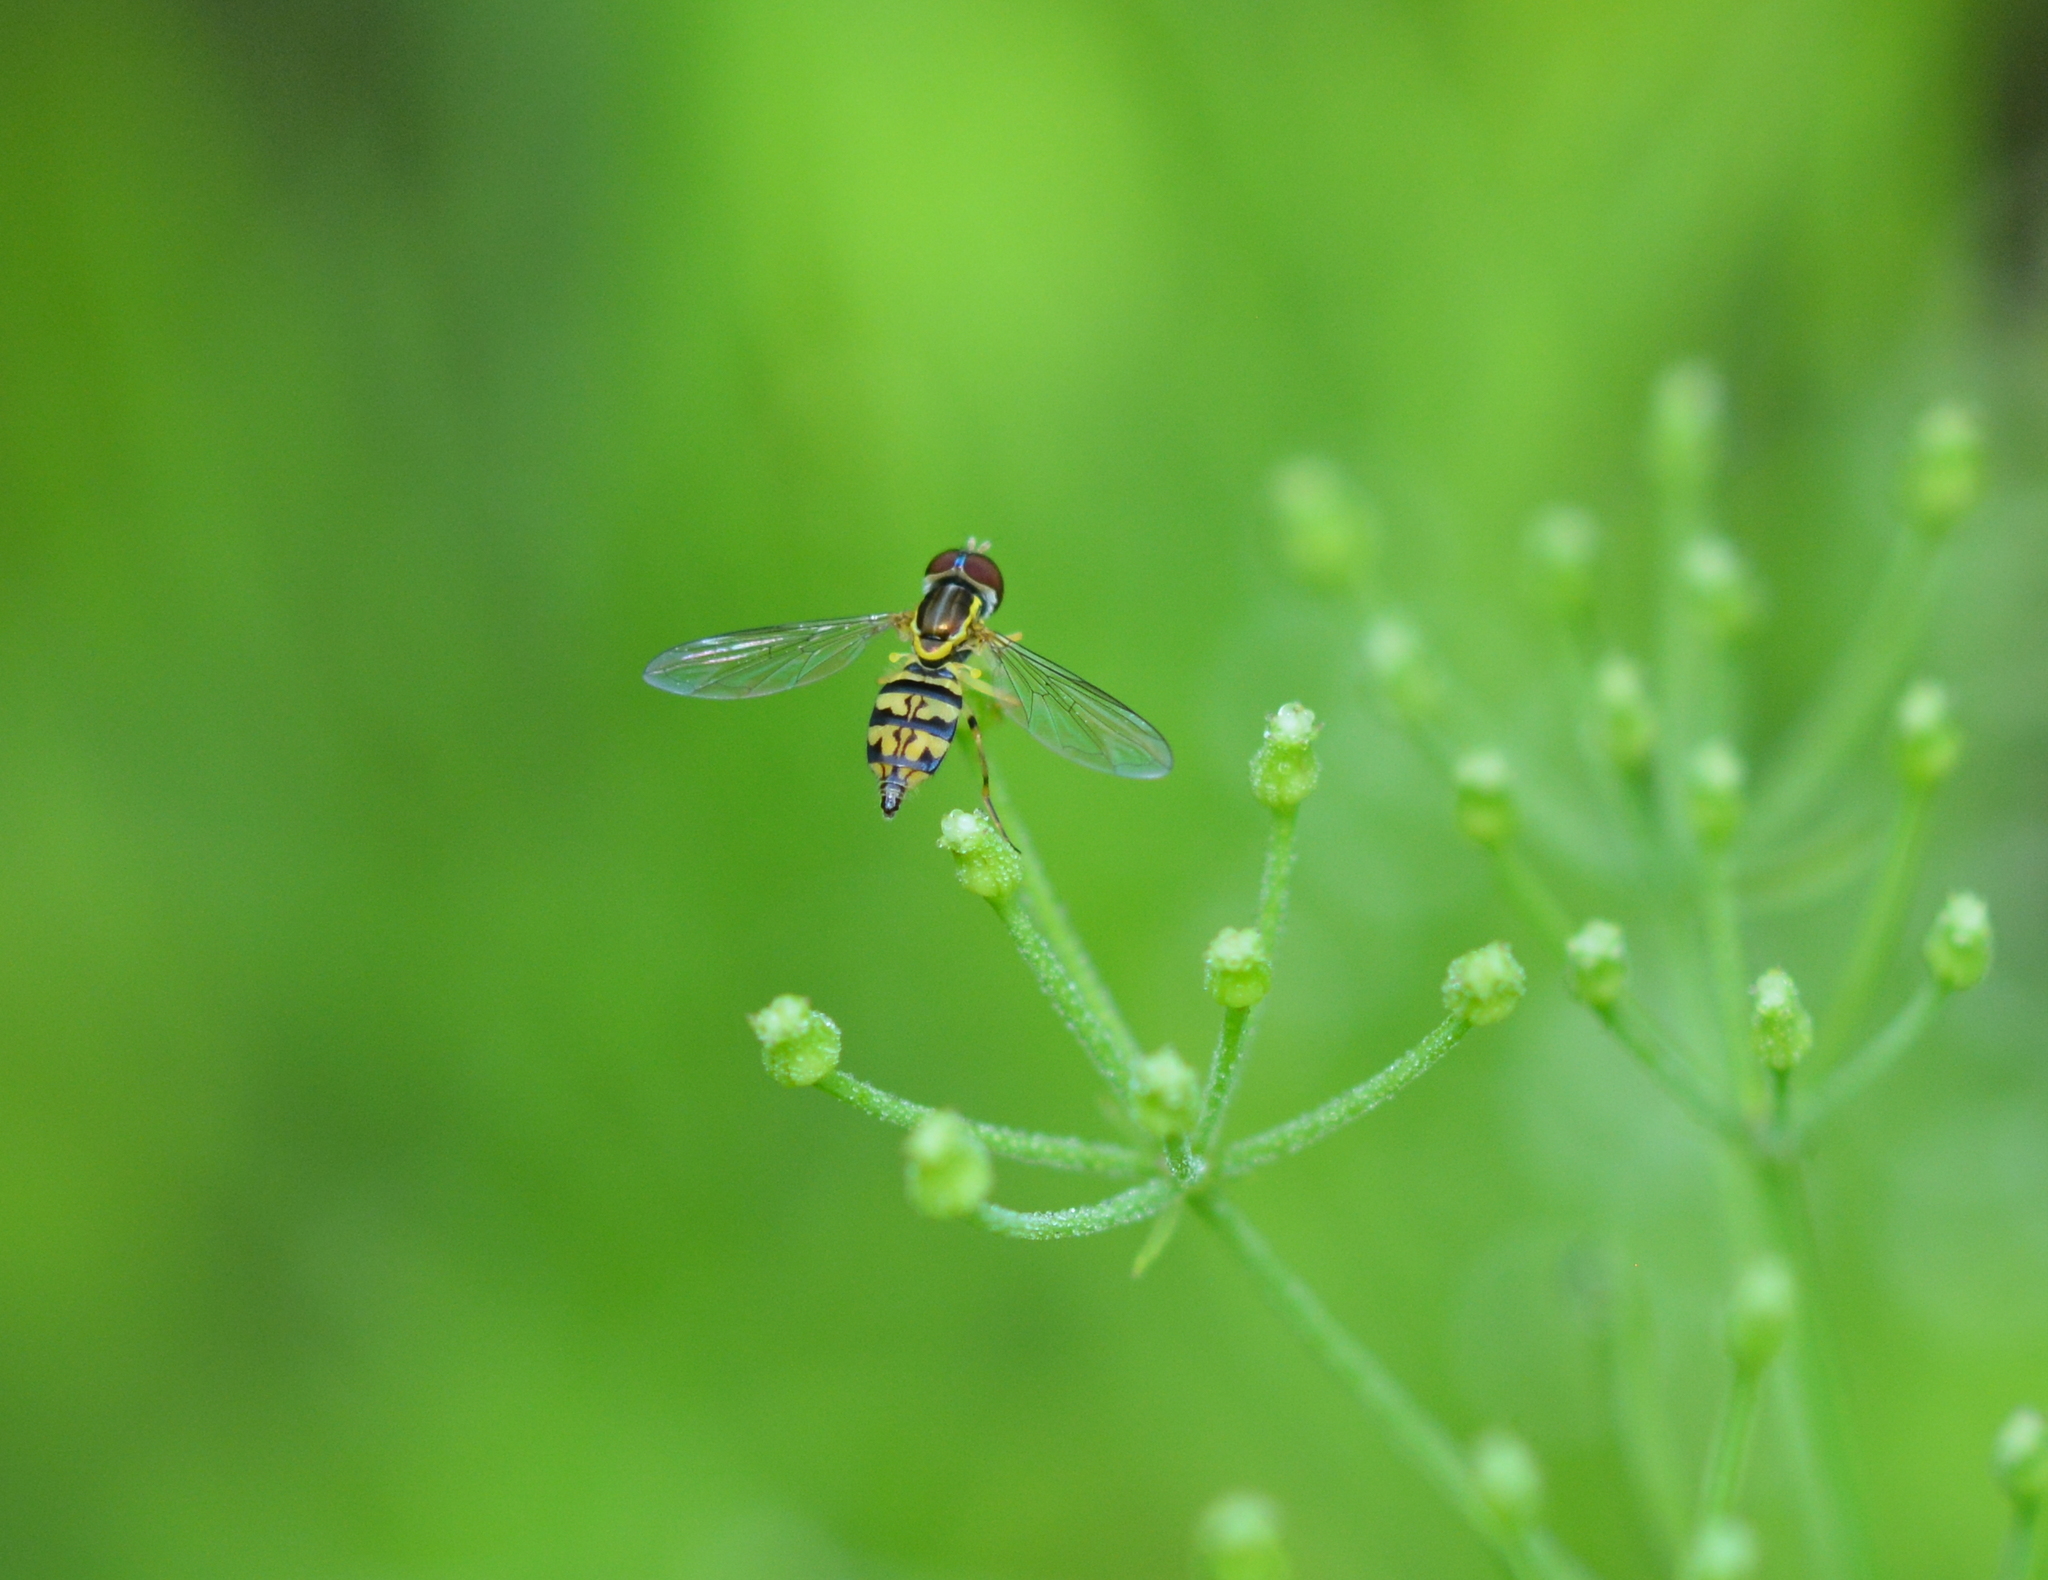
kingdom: Animalia
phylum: Arthropoda
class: Insecta
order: Diptera
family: Syrphidae
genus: Toxomerus
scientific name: Toxomerus geminatus
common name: Eastern calligrapher
